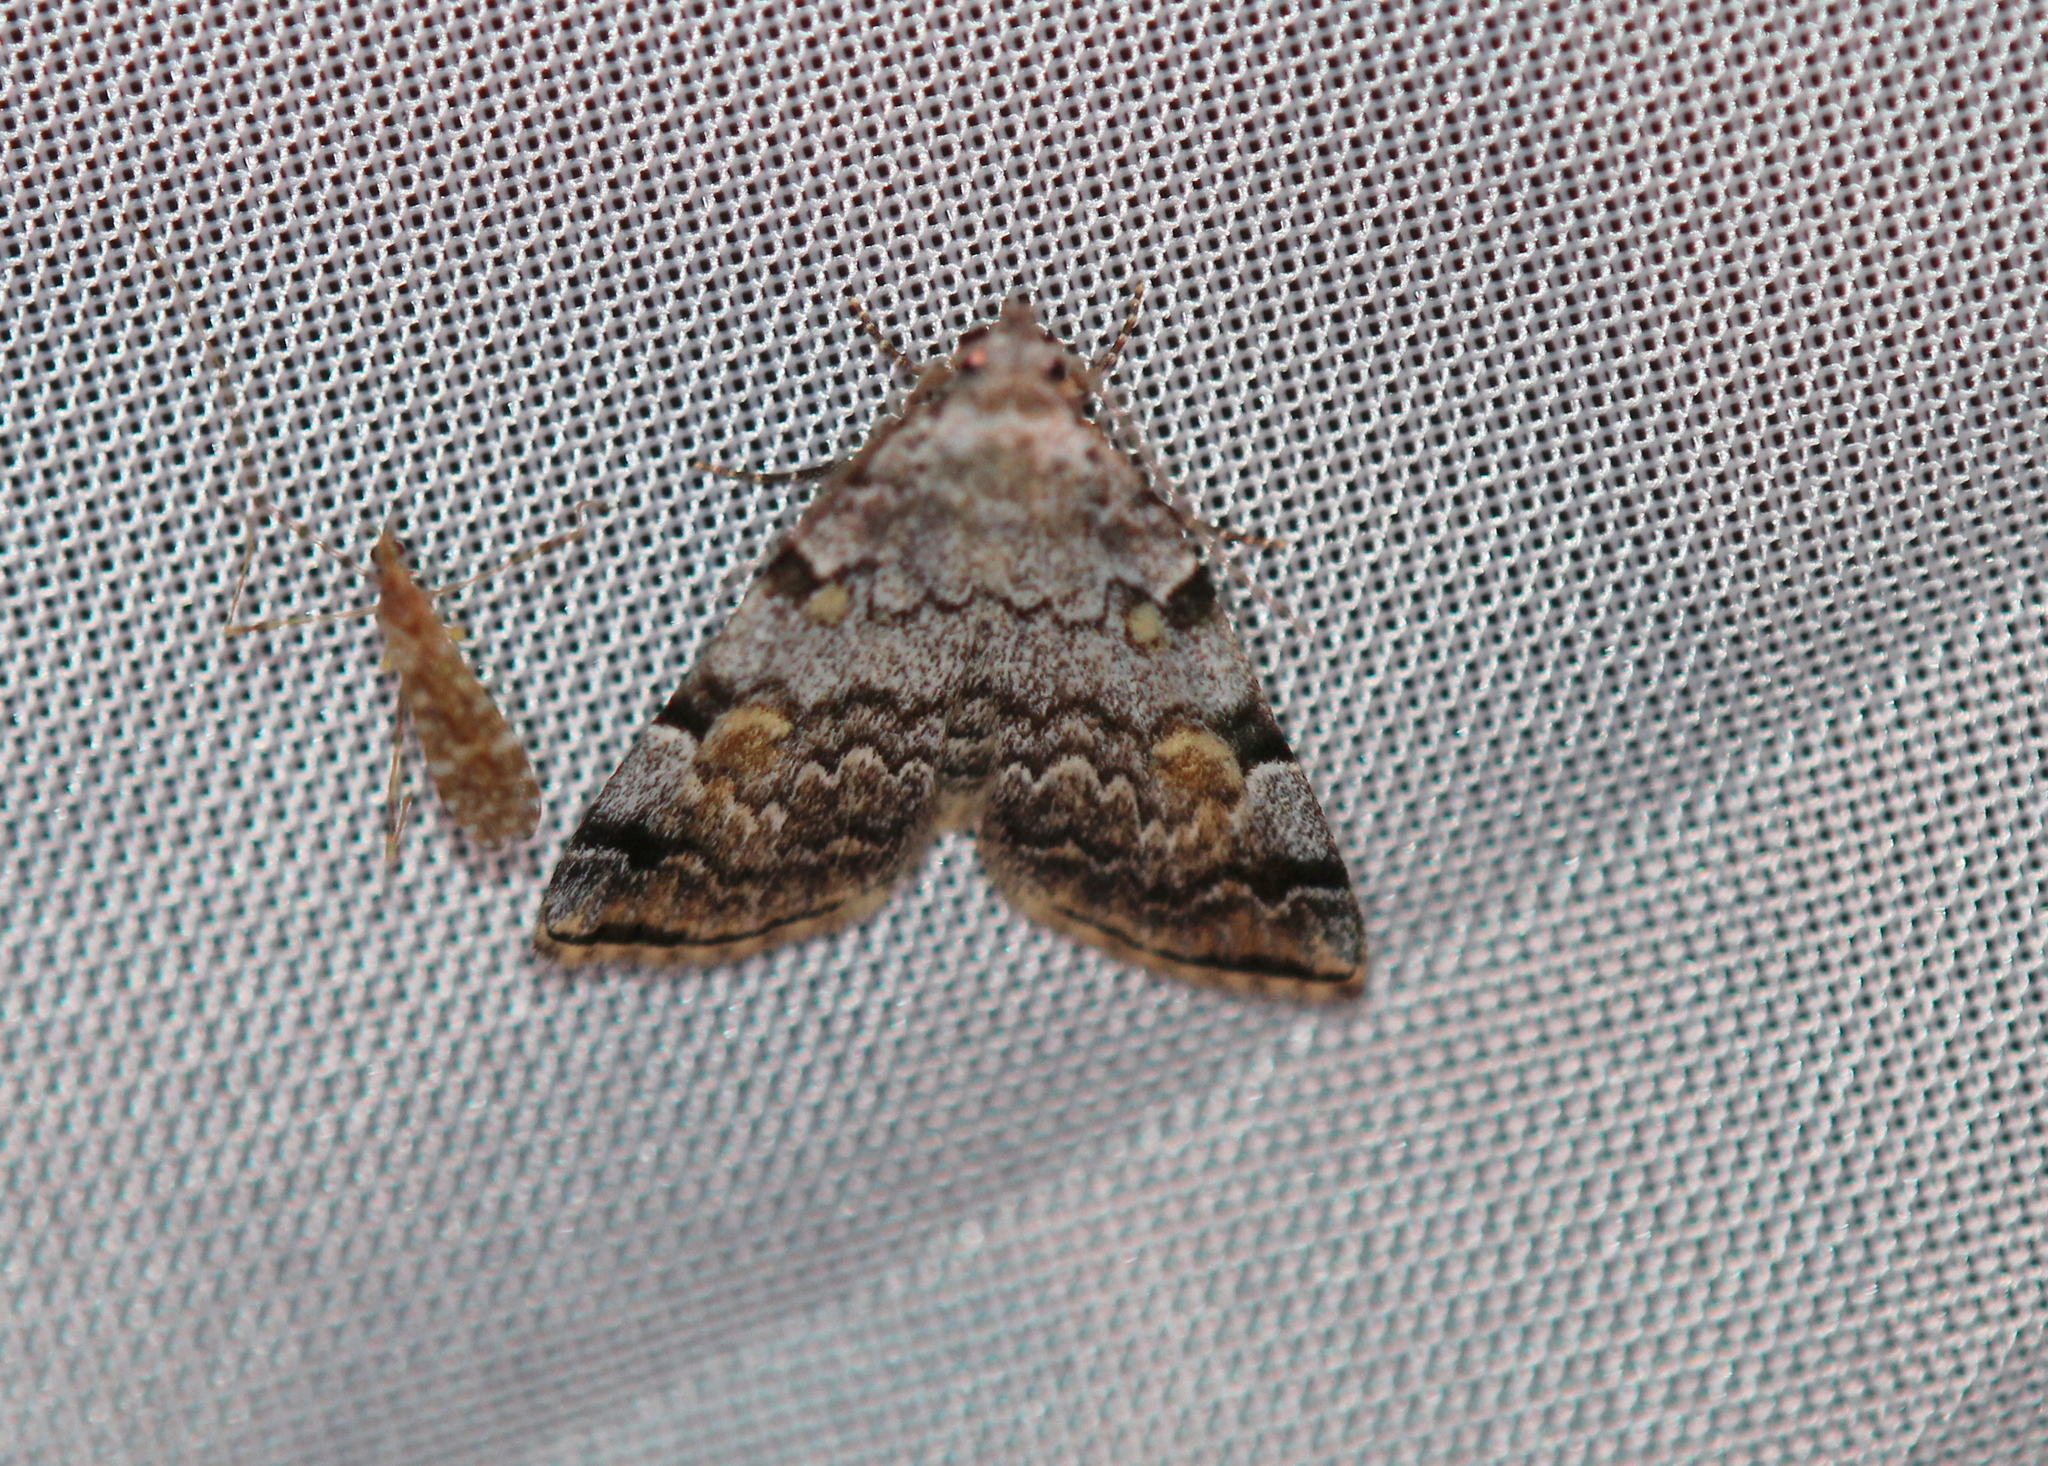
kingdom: Animalia
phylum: Arthropoda
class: Insecta
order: Lepidoptera
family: Erebidae
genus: Idia
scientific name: Idia americalis
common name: American idia moth
